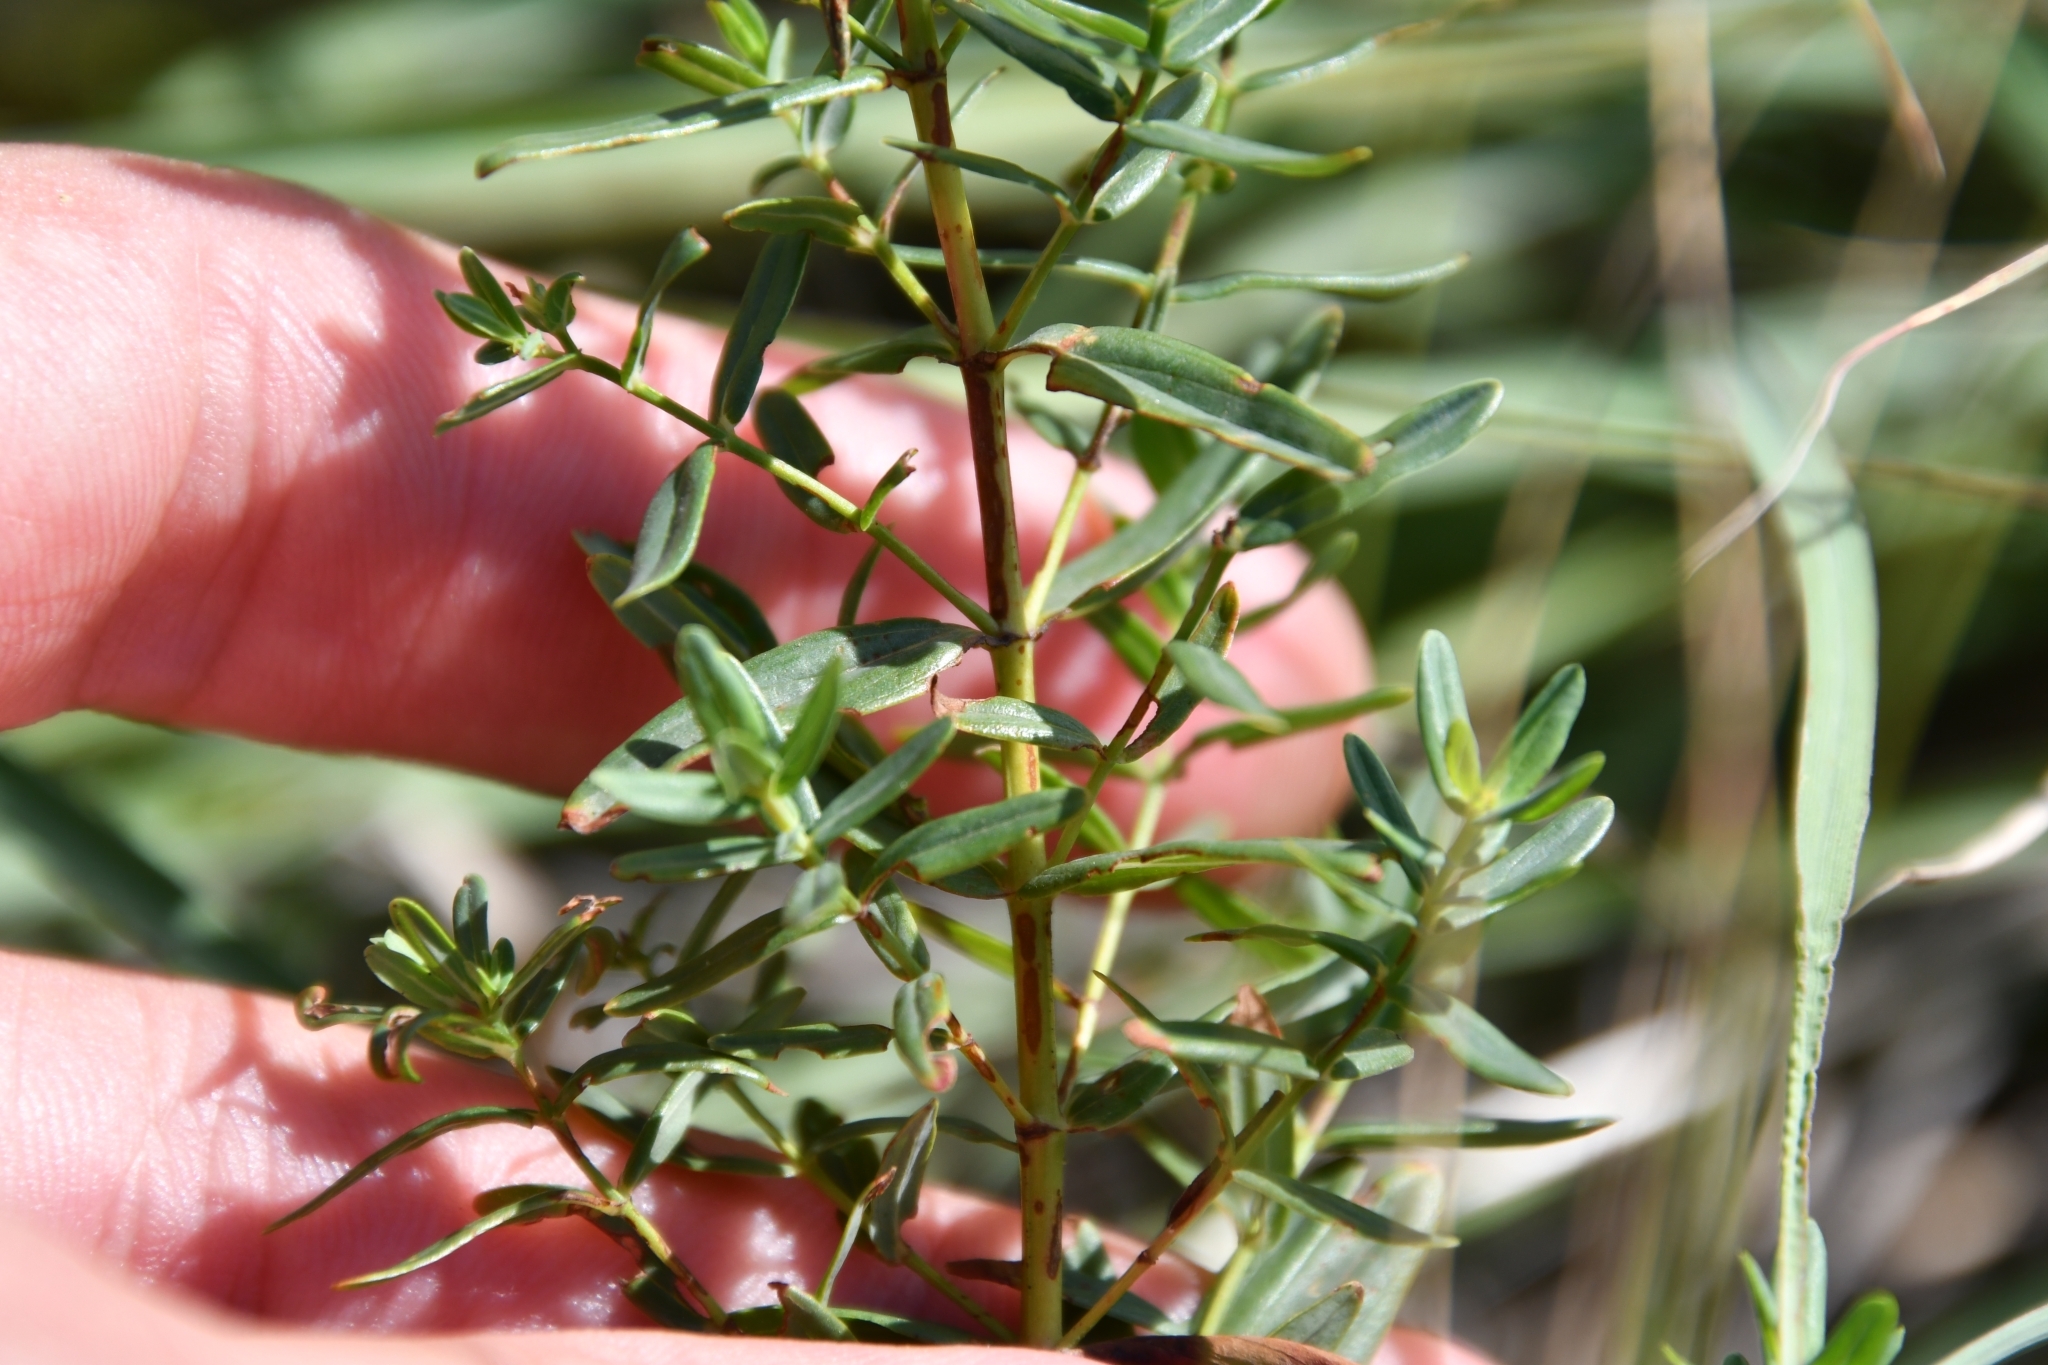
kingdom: Plantae
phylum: Tracheophyta
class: Magnoliopsida
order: Malpighiales
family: Hypericaceae
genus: Hypericum
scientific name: Hypericum elegans
